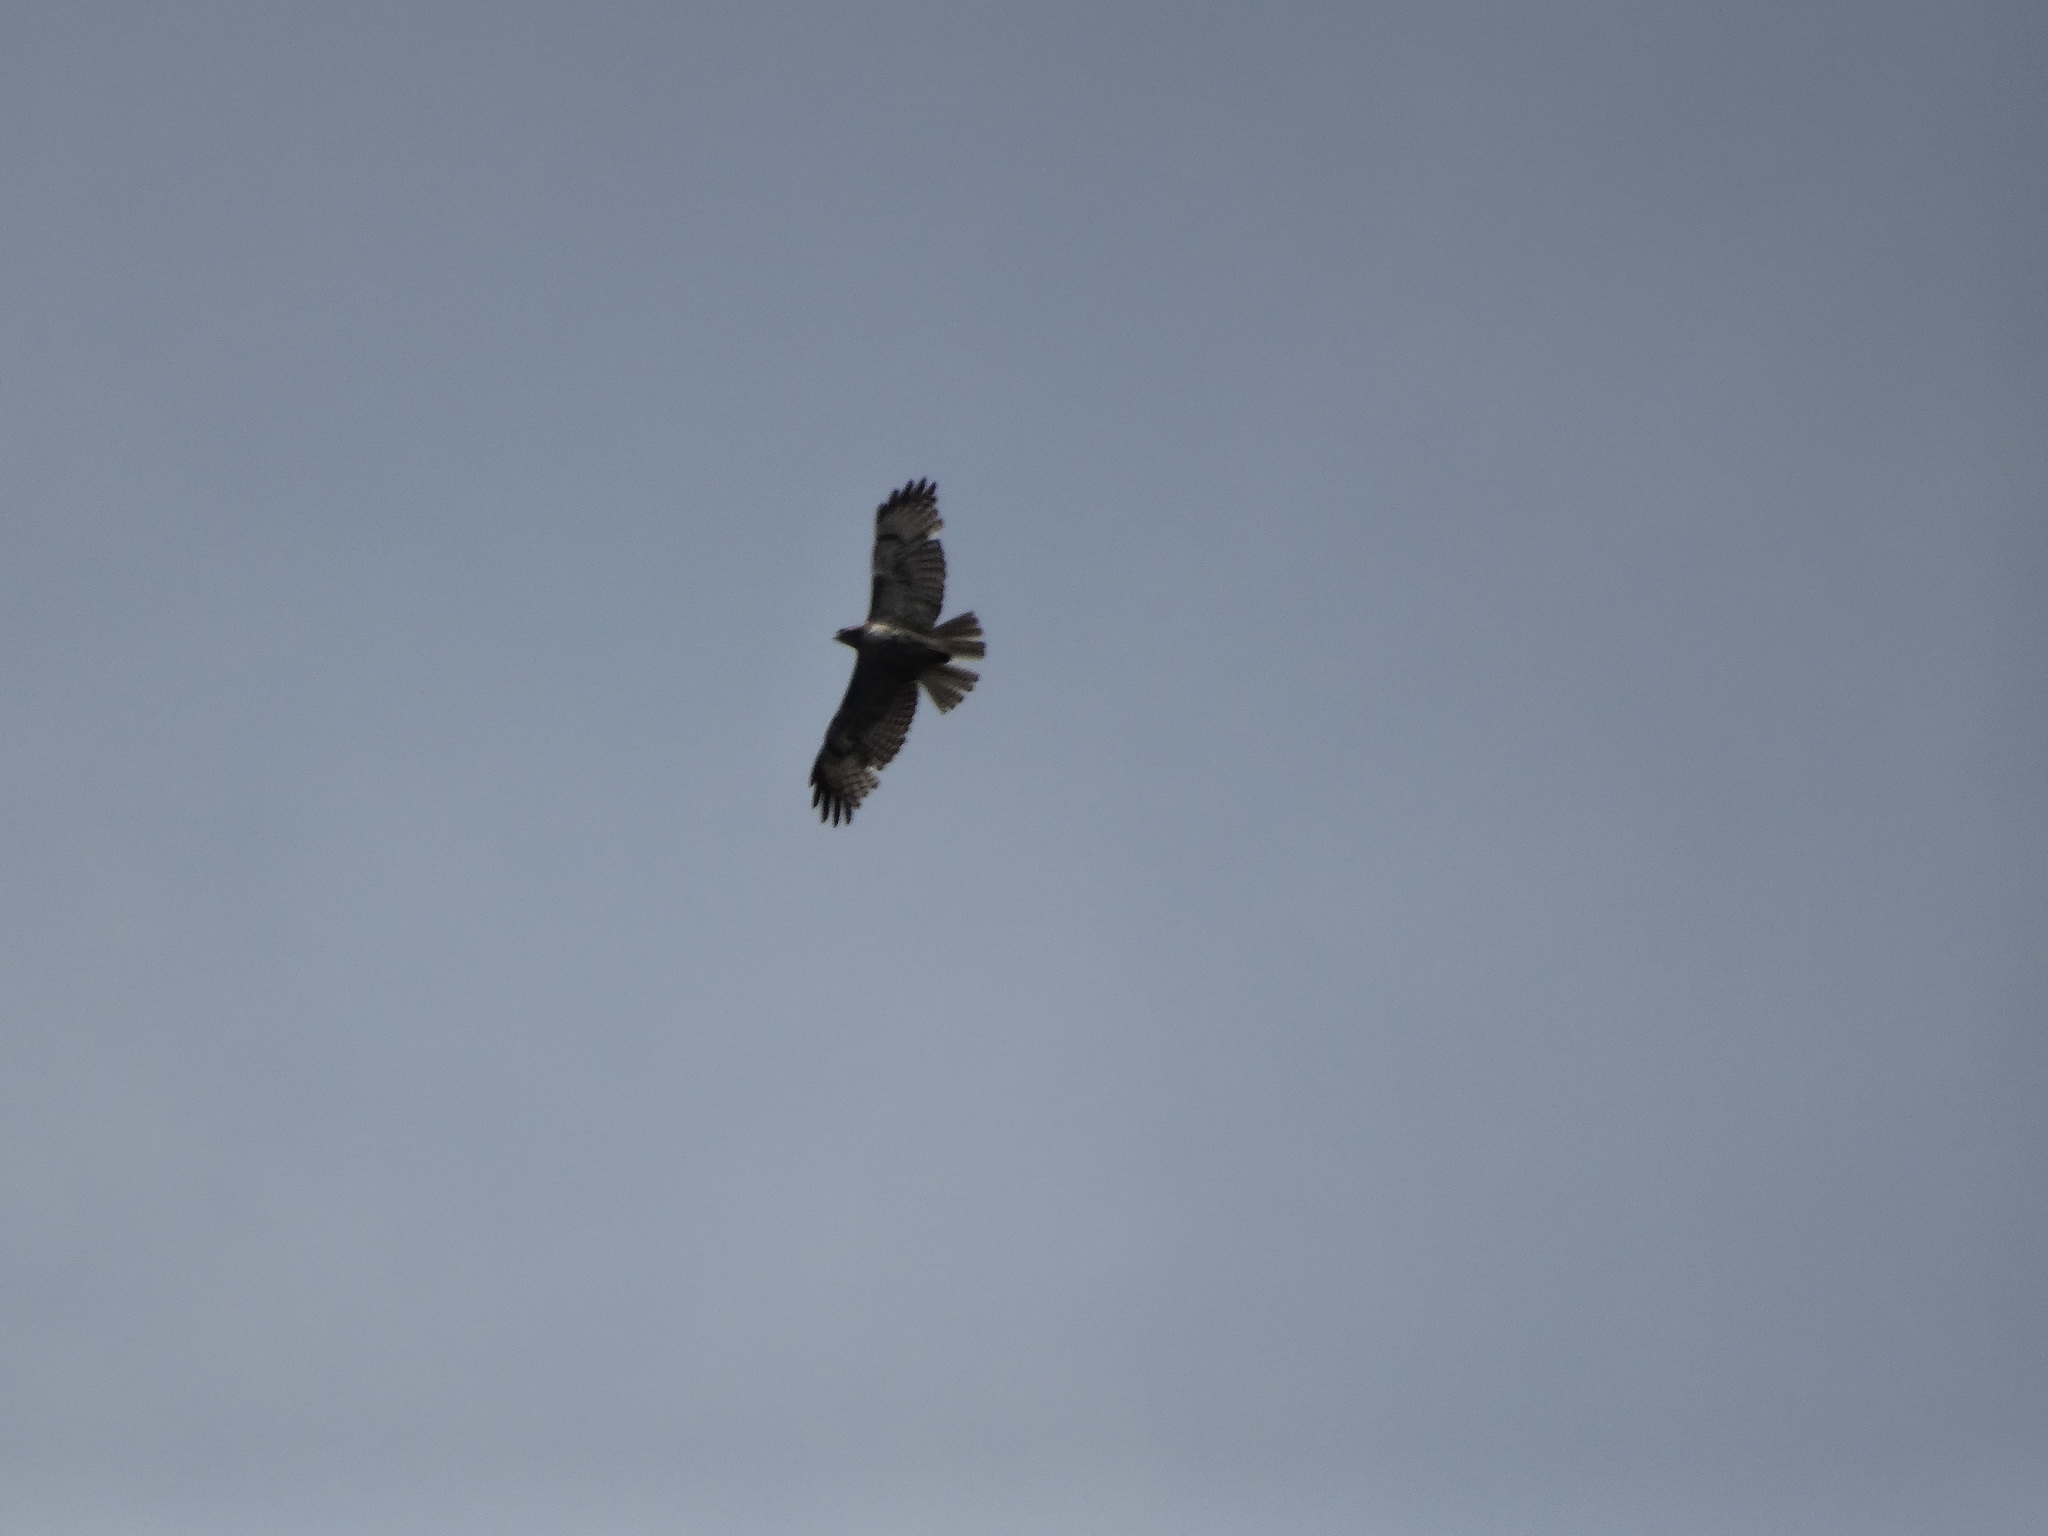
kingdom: Animalia
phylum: Chordata
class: Aves
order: Accipitriformes
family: Accipitridae
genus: Buteo
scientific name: Buteo jamaicensis
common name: Red-tailed hawk
